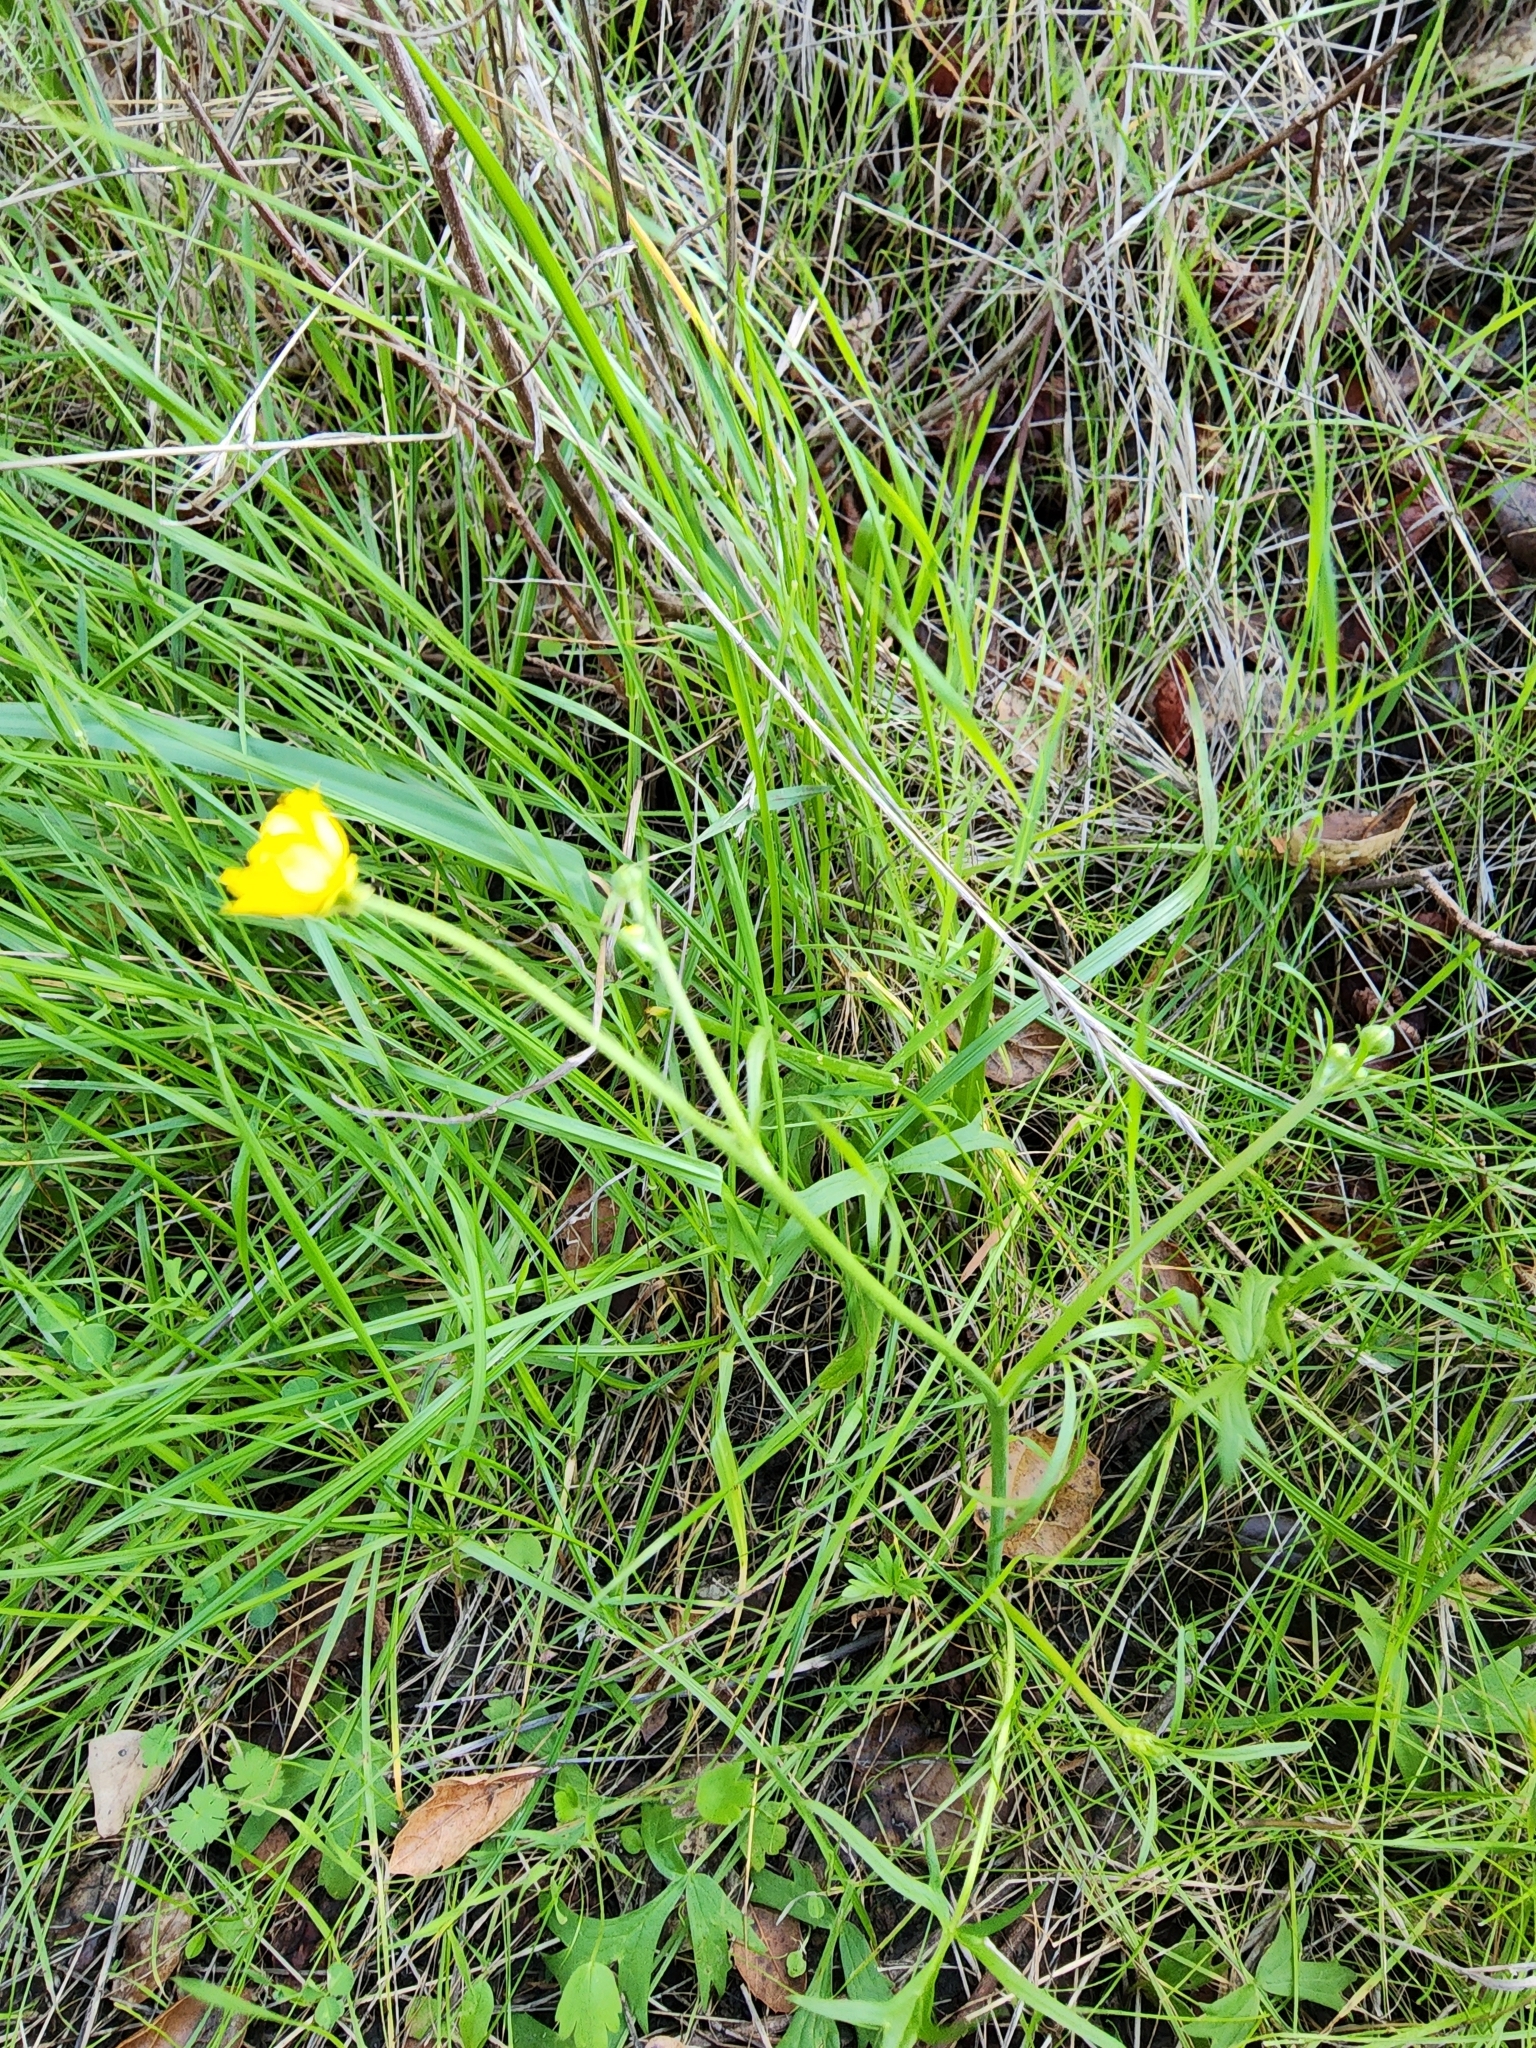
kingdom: Plantae
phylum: Tracheophyta
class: Magnoliopsida
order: Ranunculales
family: Ranunculaceae
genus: Ranunculus
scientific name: Ranunculus californicus
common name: California buttercup
